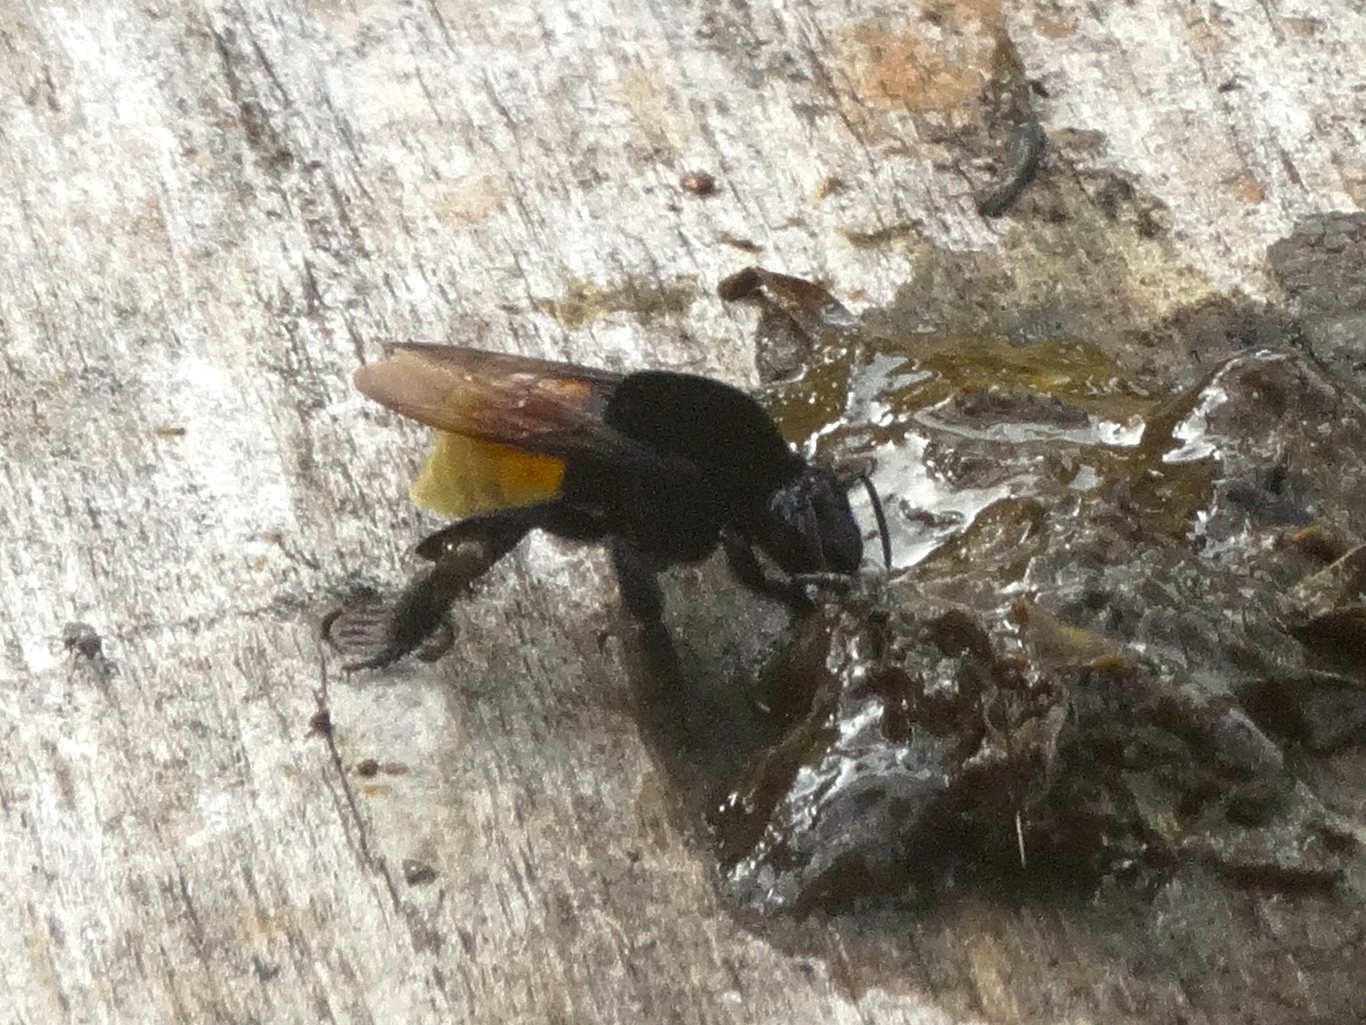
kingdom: Animalia
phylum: Arthropoda
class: Insecta
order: Hymenoptera
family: Apidae
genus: Eulaema
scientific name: Eulaema polychroma
